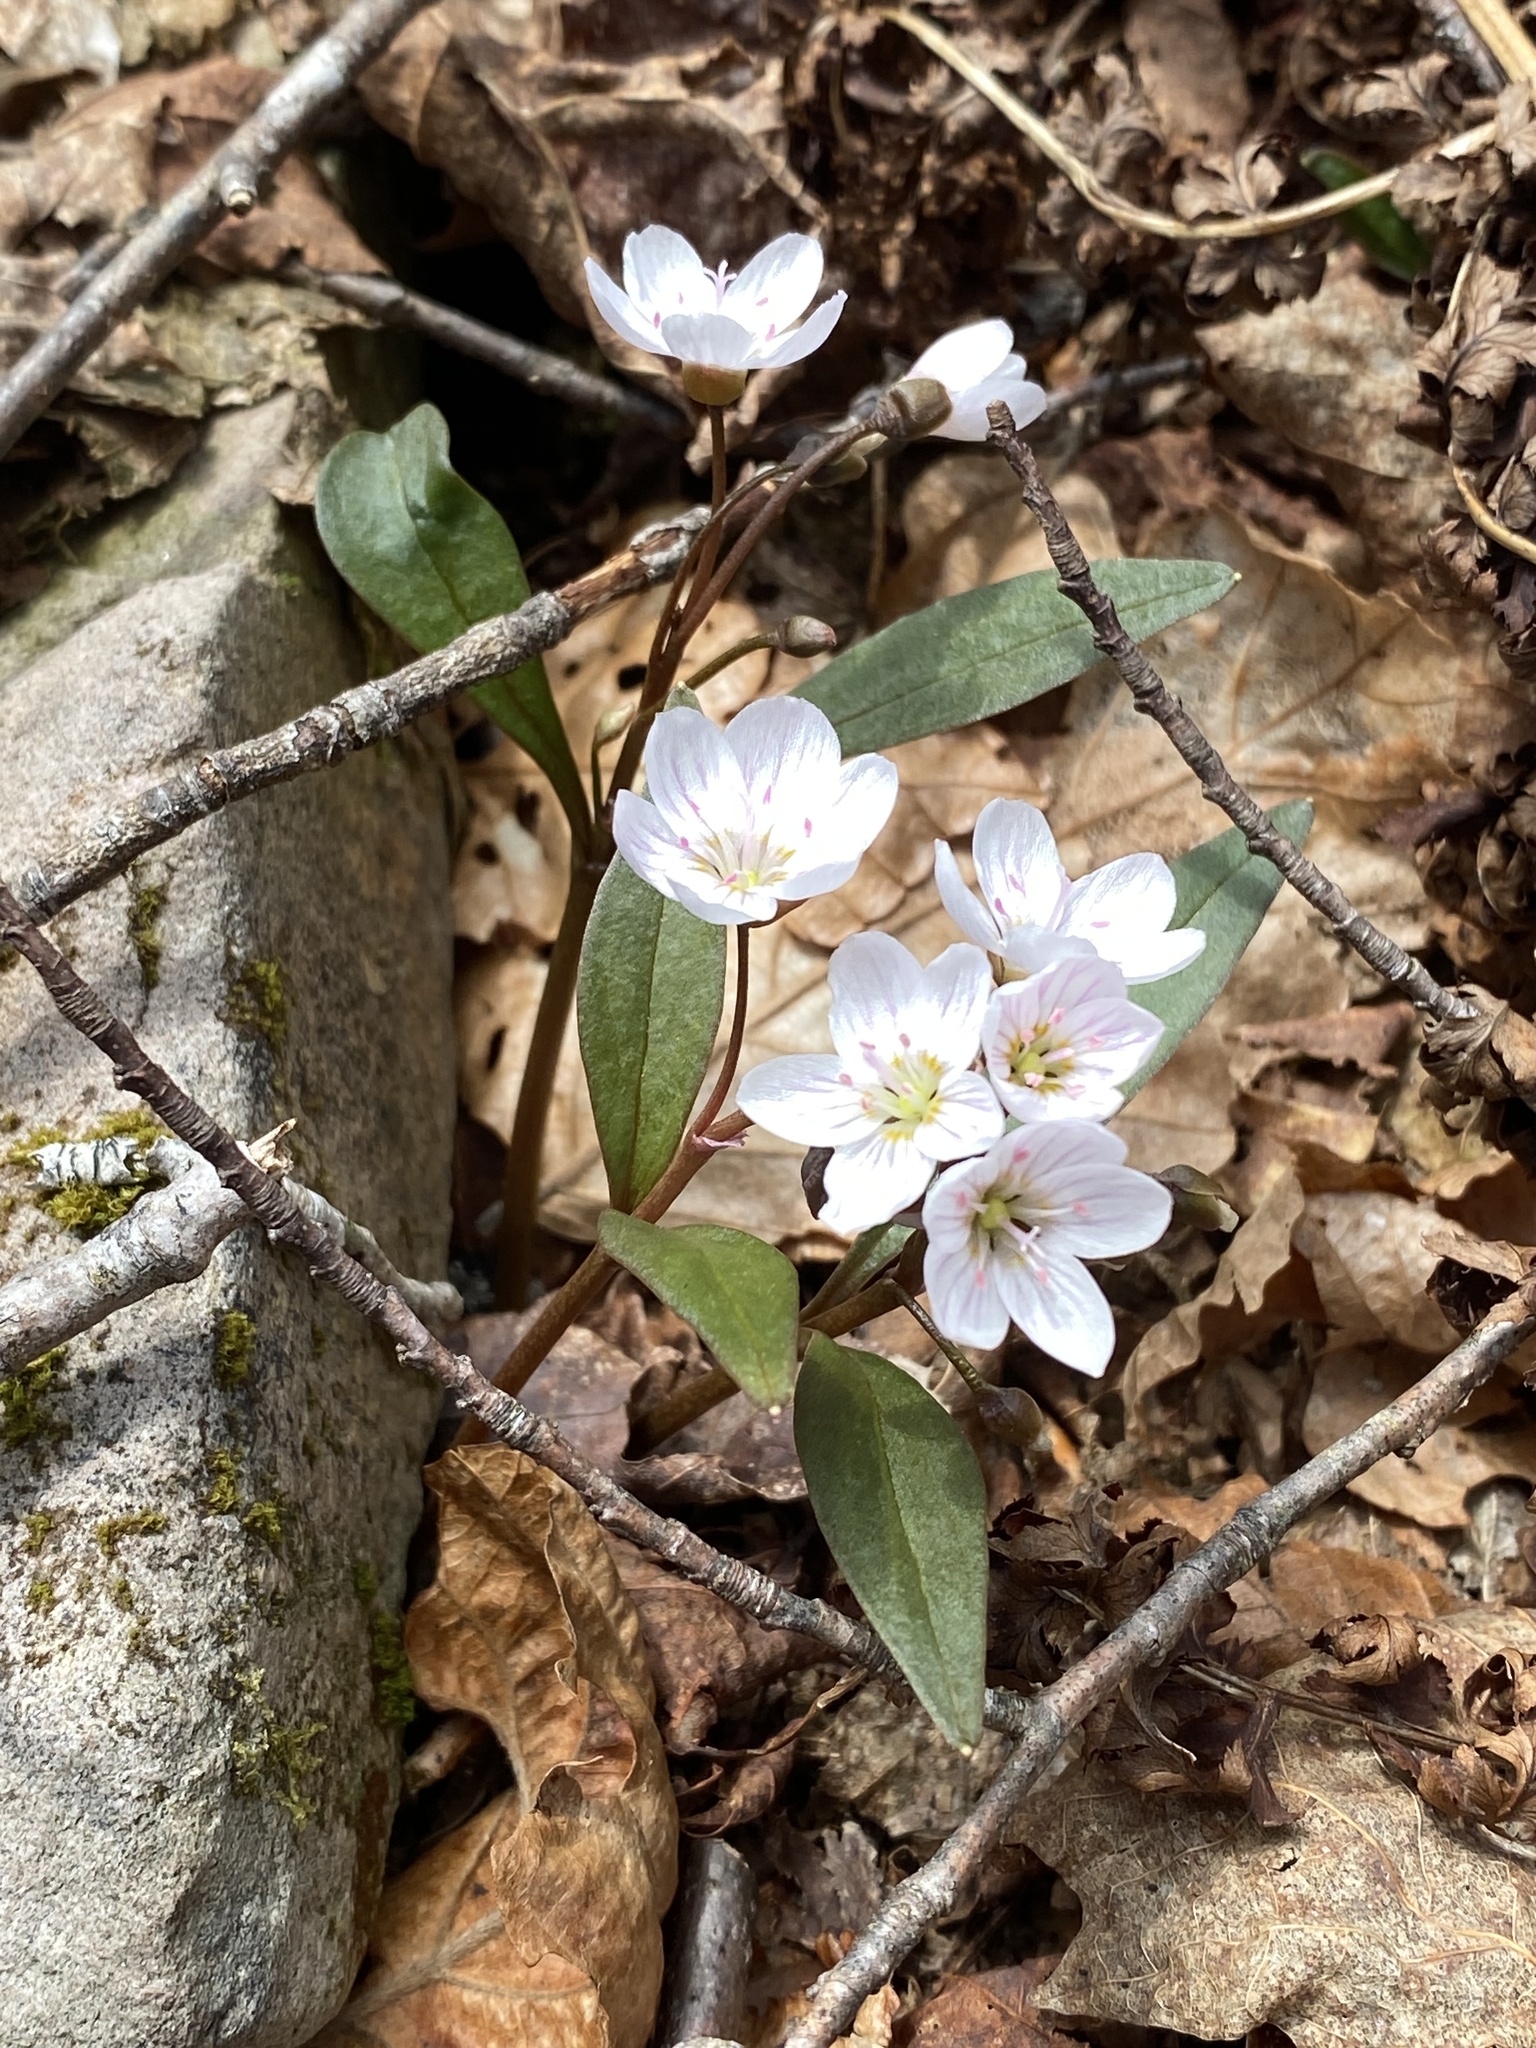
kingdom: Plantae
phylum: Tracheophyta
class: Magnoliopsida
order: Caryophyllales
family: Montiaceae
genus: Claytonia
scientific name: Claytonia caroliniana
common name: Carolina spring beauty
